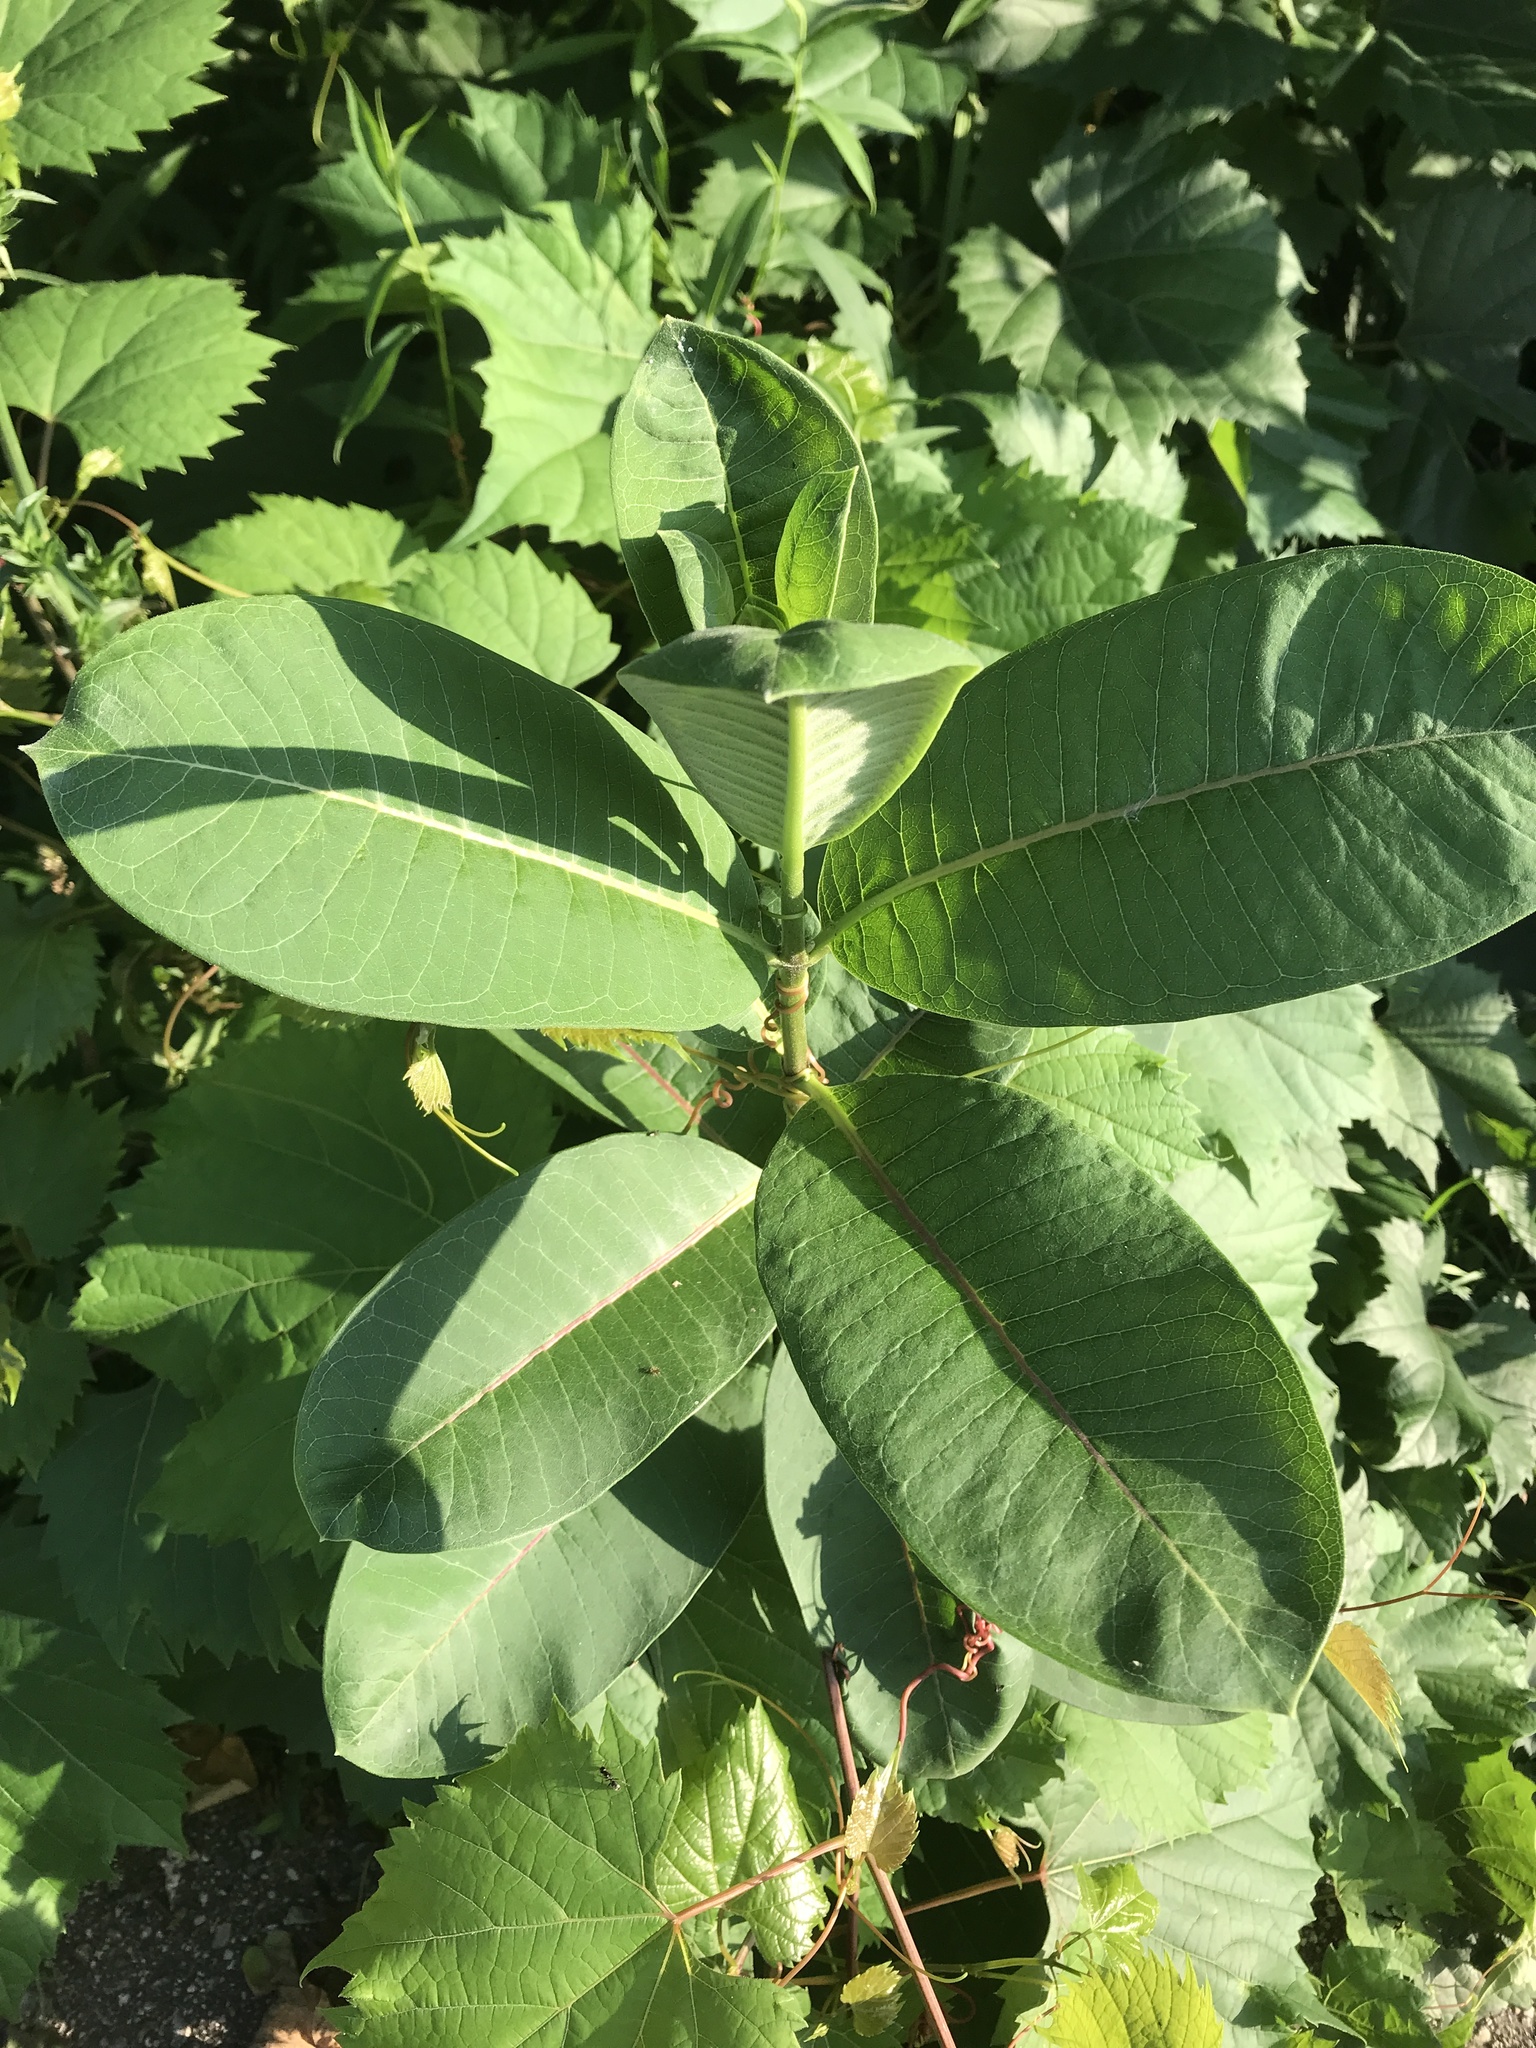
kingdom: Plantae
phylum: Tracheophyta
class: Magnoliopsida
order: Gentianales
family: Apocynaceae
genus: Asclepias
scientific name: Asclepias syriaca
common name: Common milkweed
